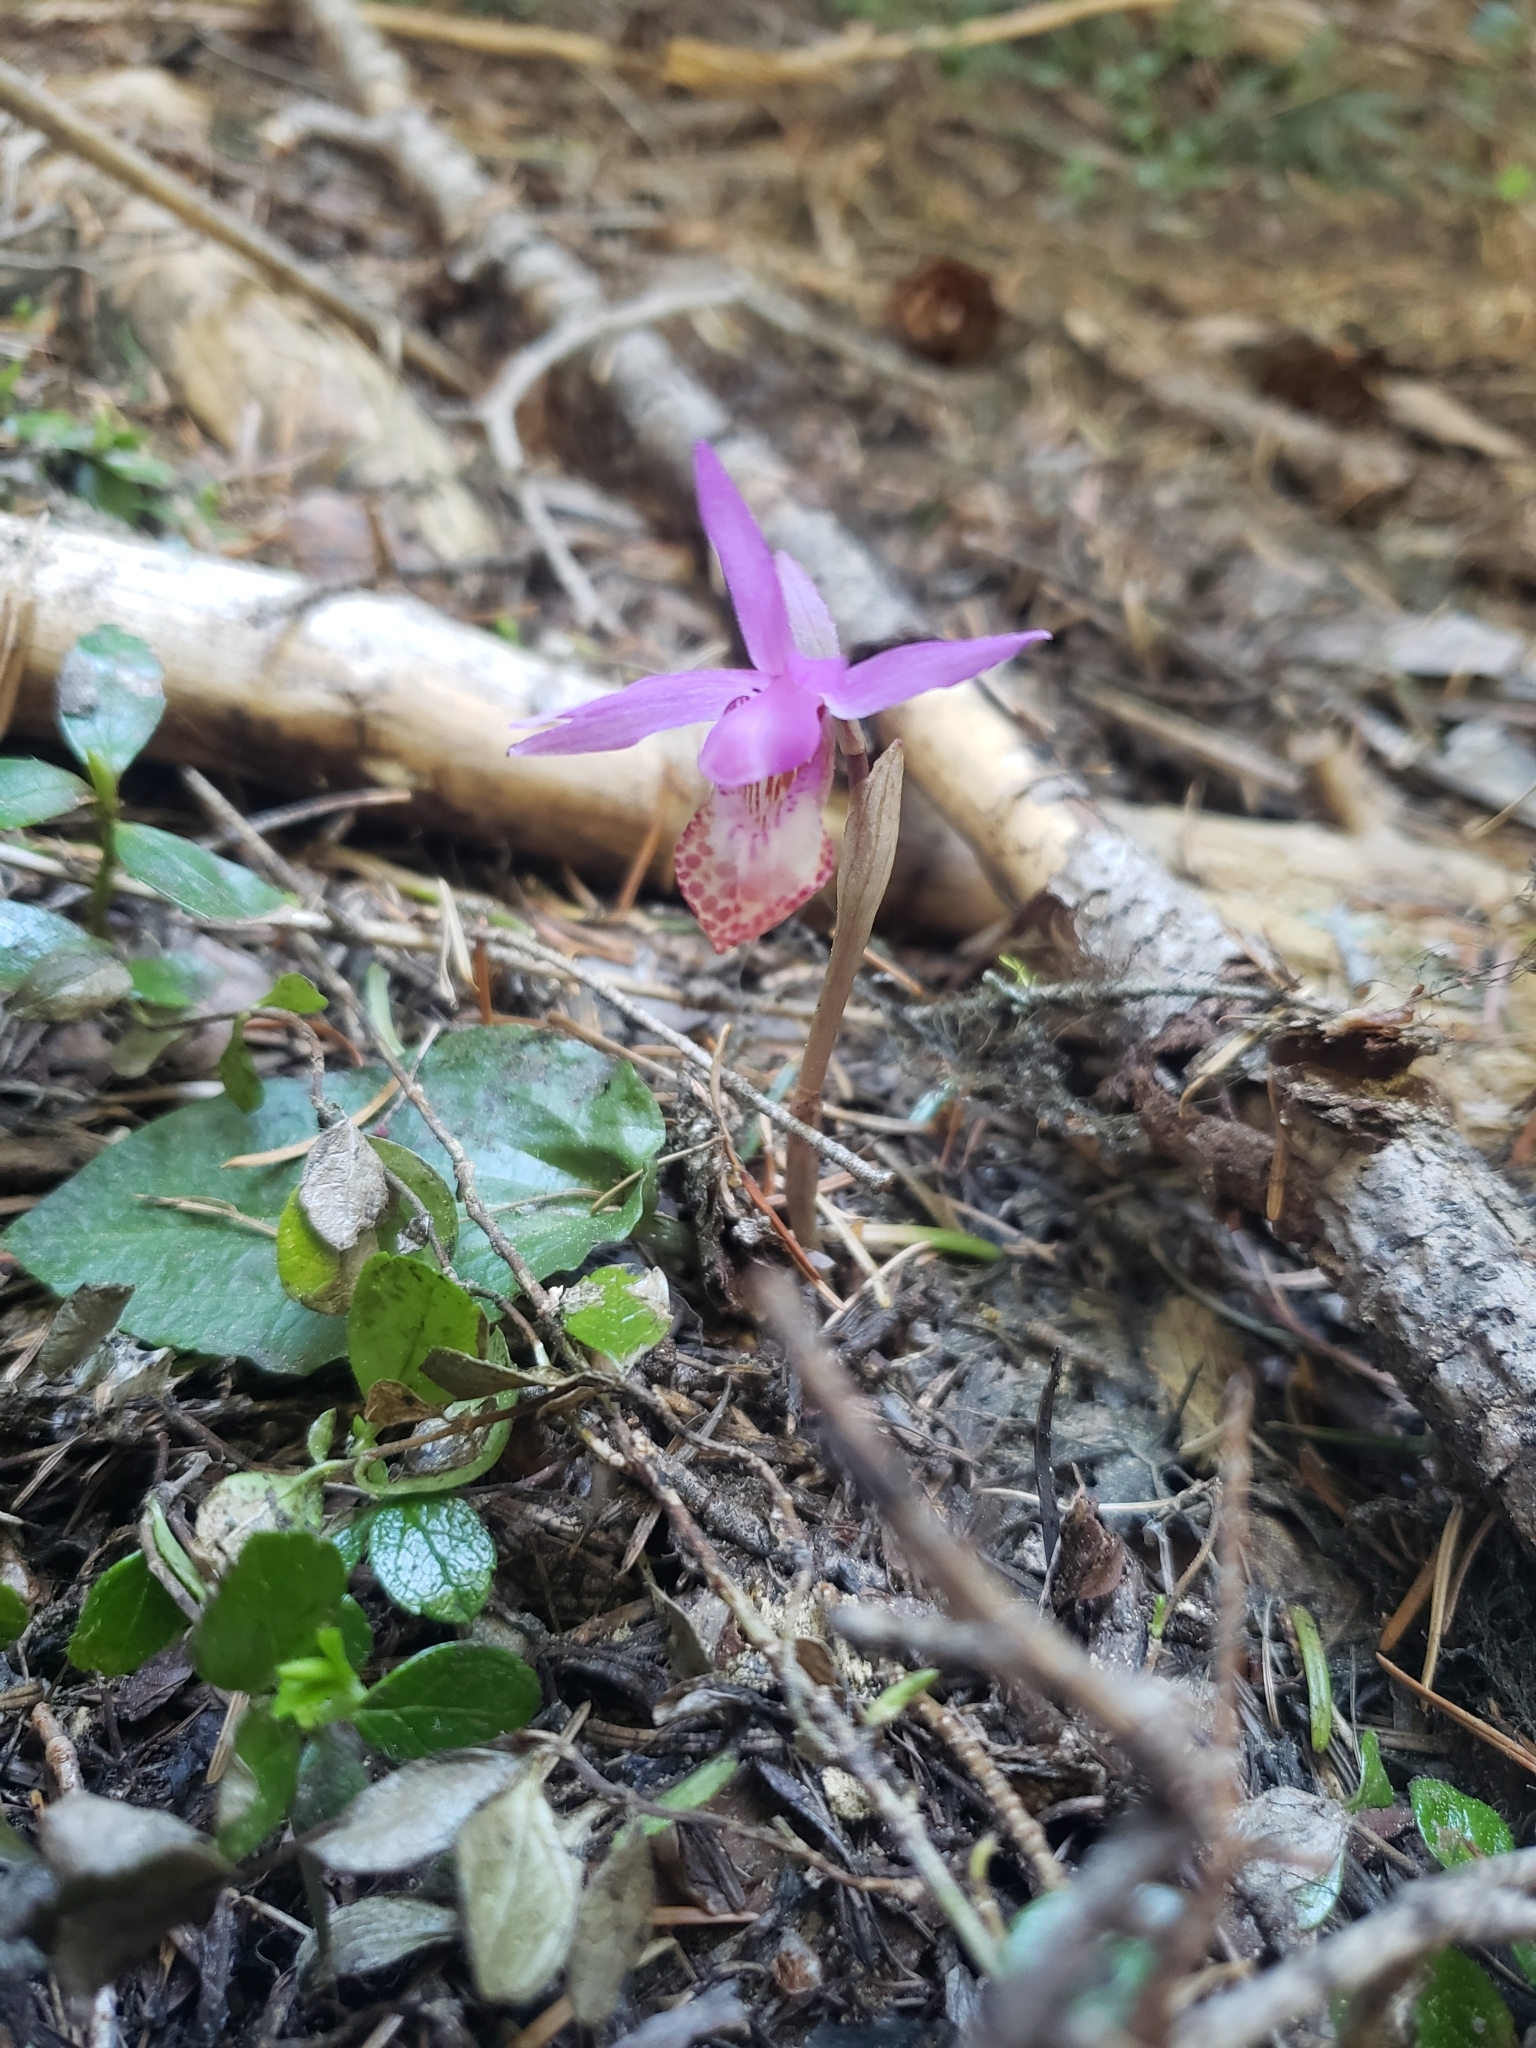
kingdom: Plantae
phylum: Tracheophyta
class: Liliopsida
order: Asparagales
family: Orchidaceae
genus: Calypso
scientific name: Calypso bulbosa
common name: Calypso
